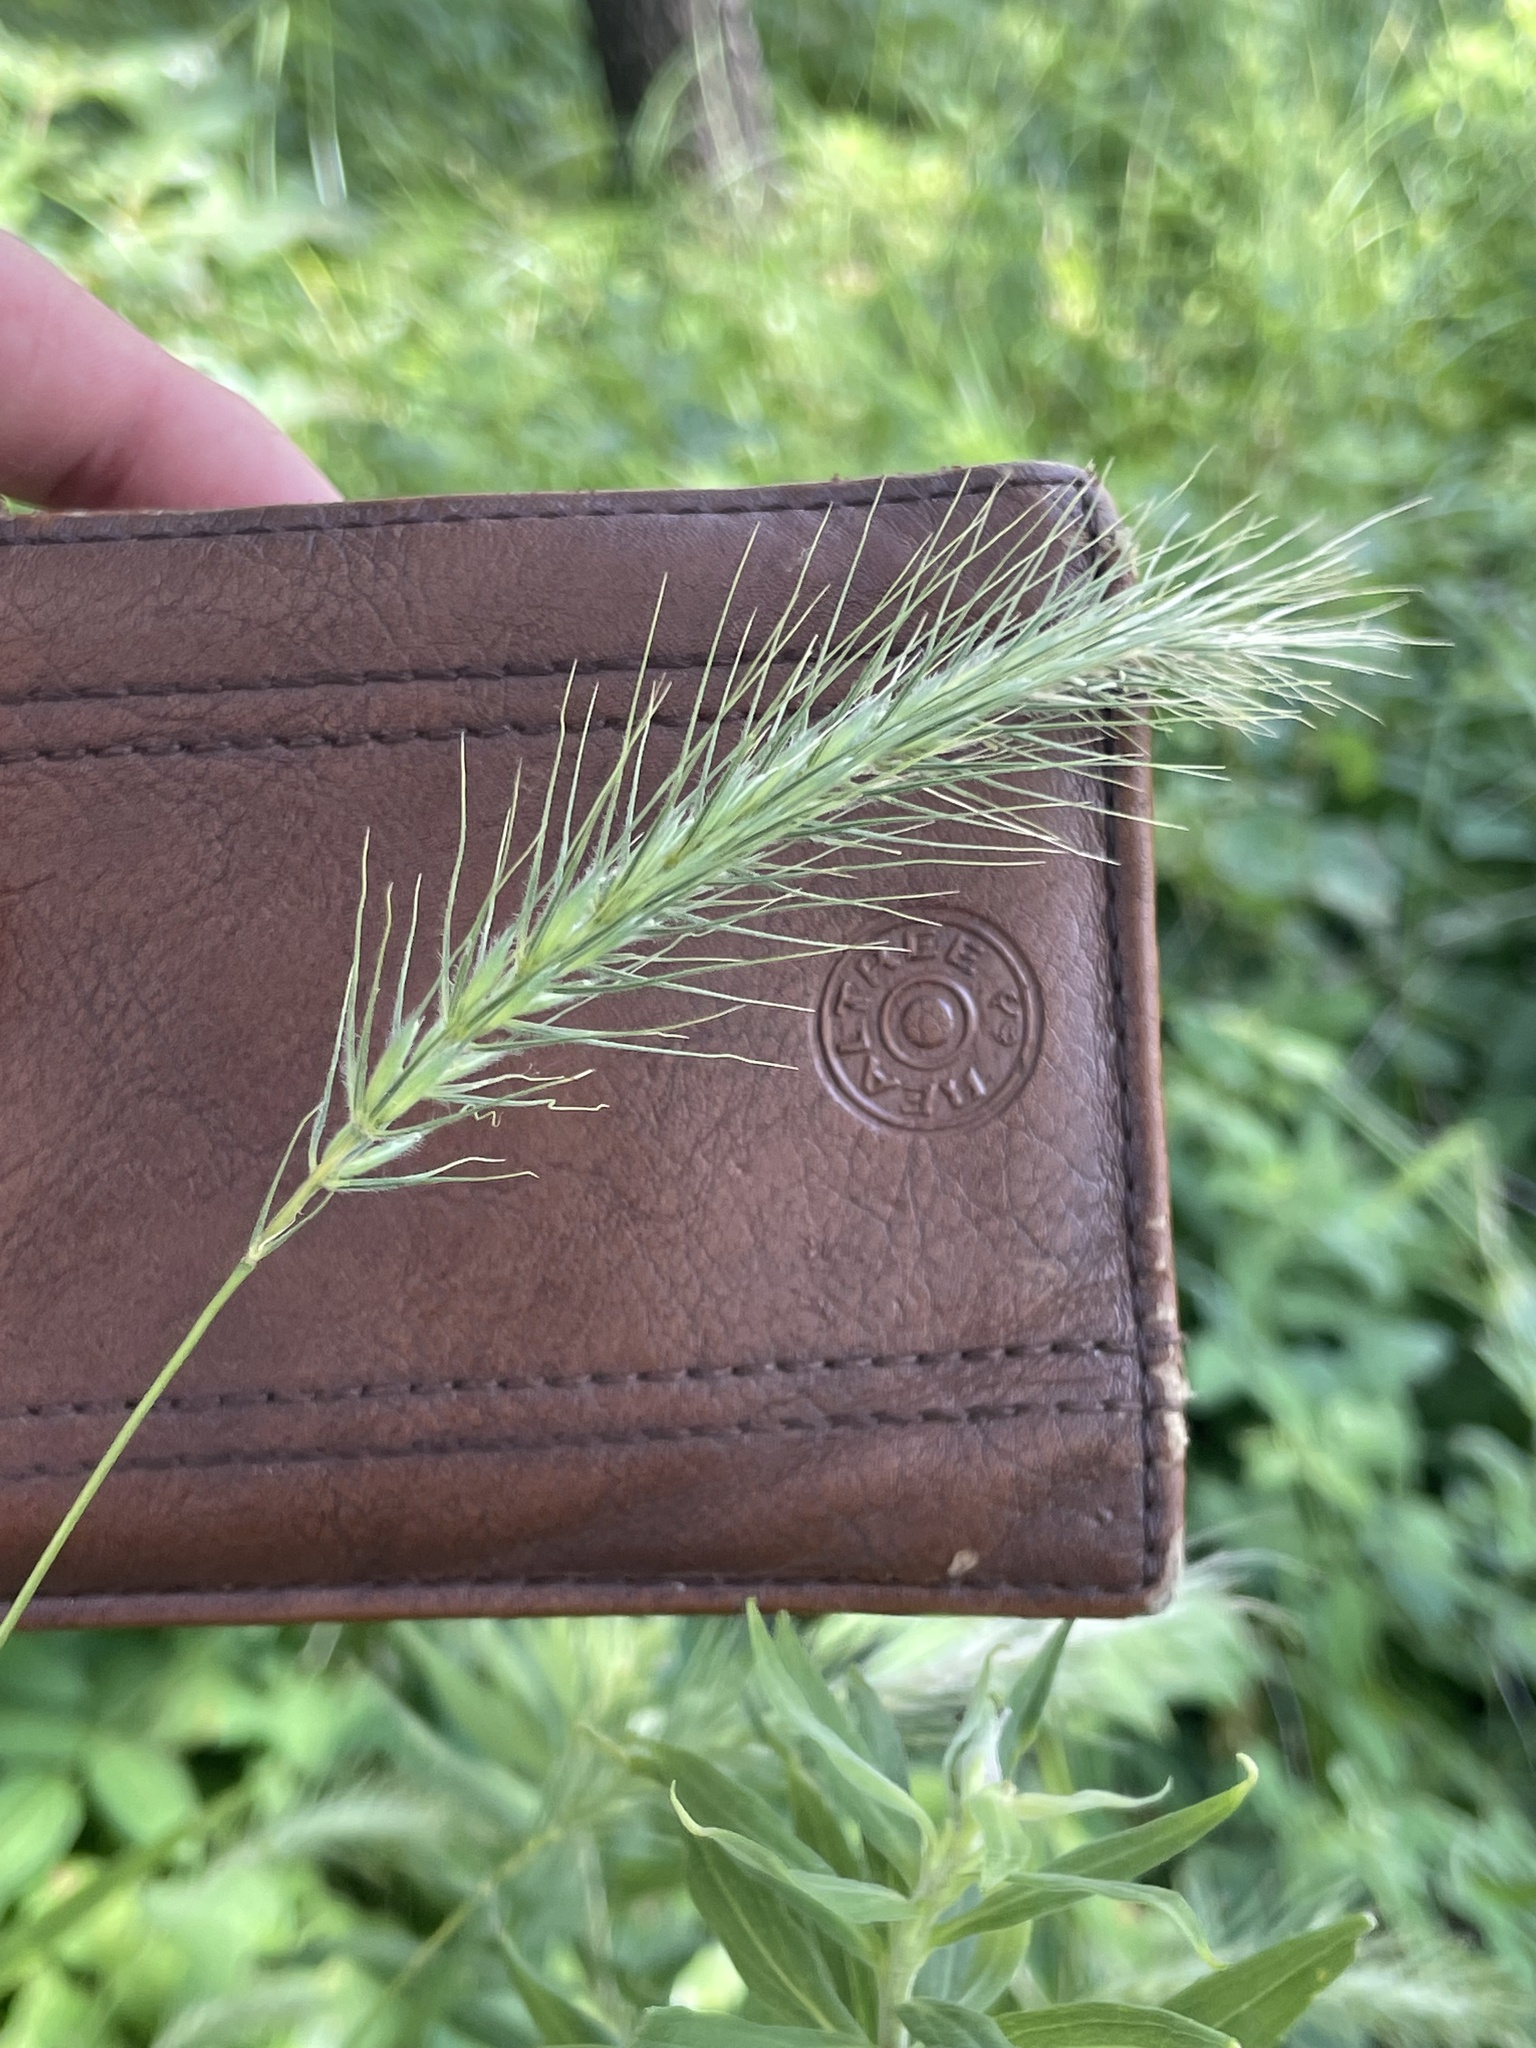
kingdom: Plantae
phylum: Tracheophyta
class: Liliopsida
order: Poales
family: Poaceae
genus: Elymus
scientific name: Elymus villosus
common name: Downy wild rye
